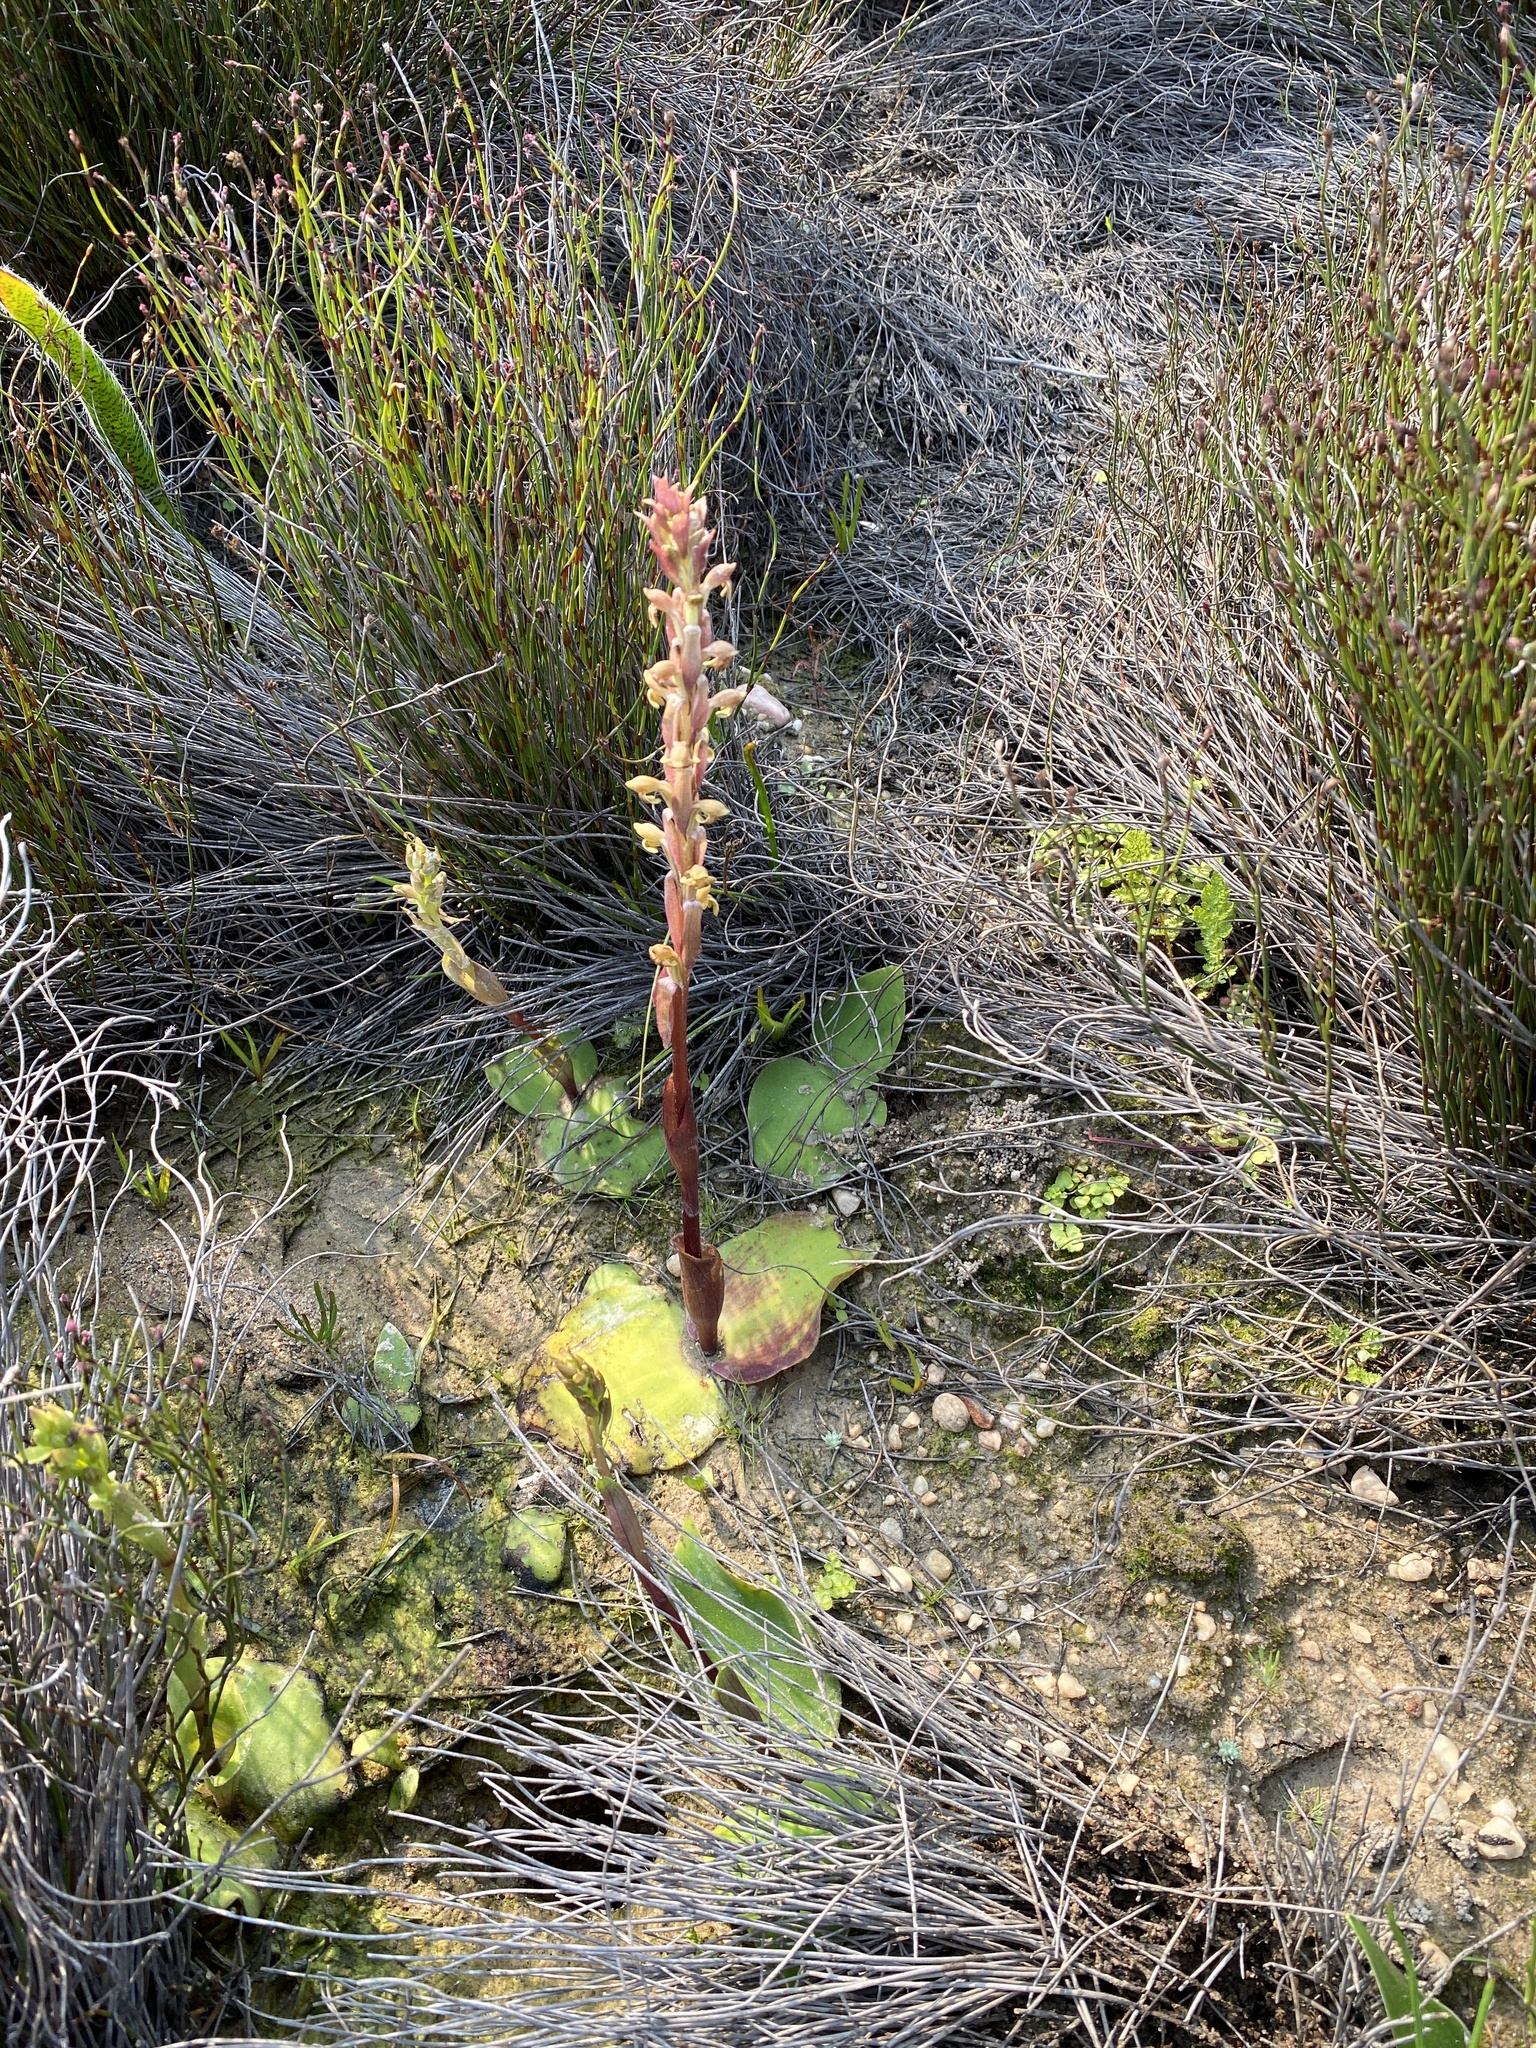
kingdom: Plantae
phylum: Tracheophyta
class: Liliopsida
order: Asparagales
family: Orchidaceae
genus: Satyrium
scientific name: Satyrium bicorne
